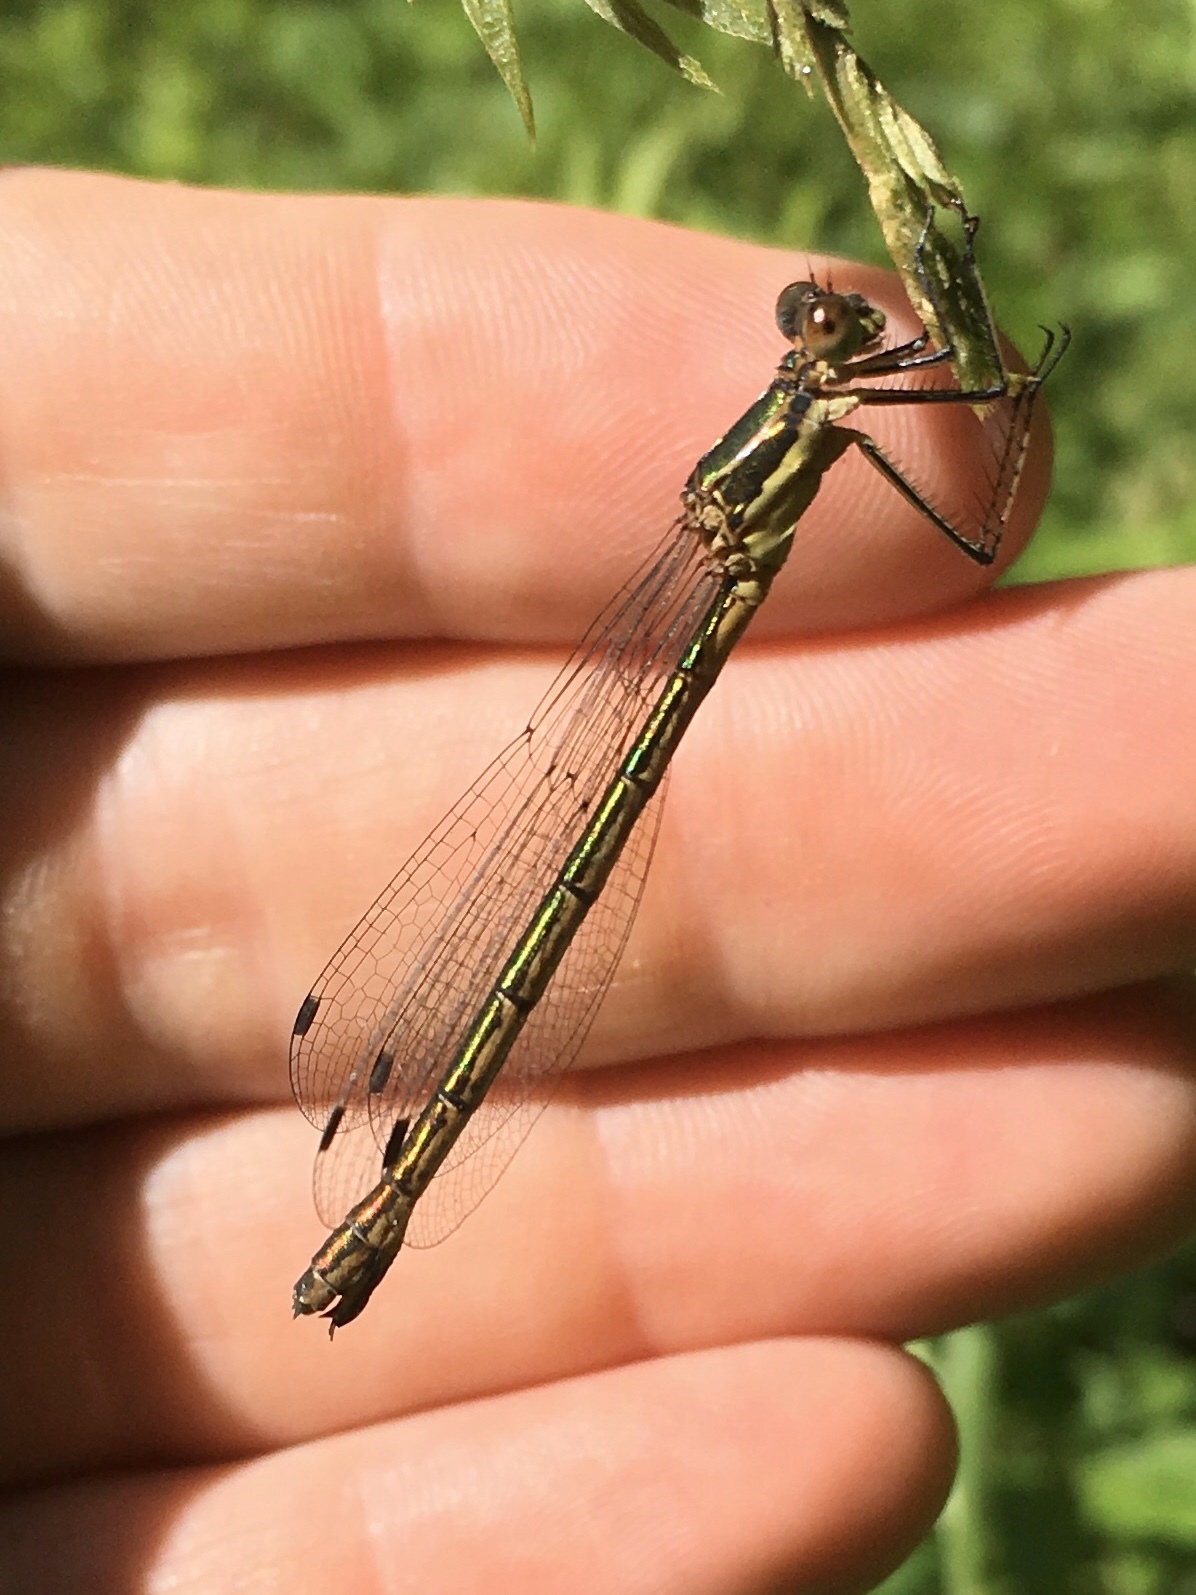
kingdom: Animalia
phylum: Arthropoda
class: Insecta
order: Odonata
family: Lestidae
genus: Lestes
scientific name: Lestes dryas
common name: Scarce emerald damselfly
